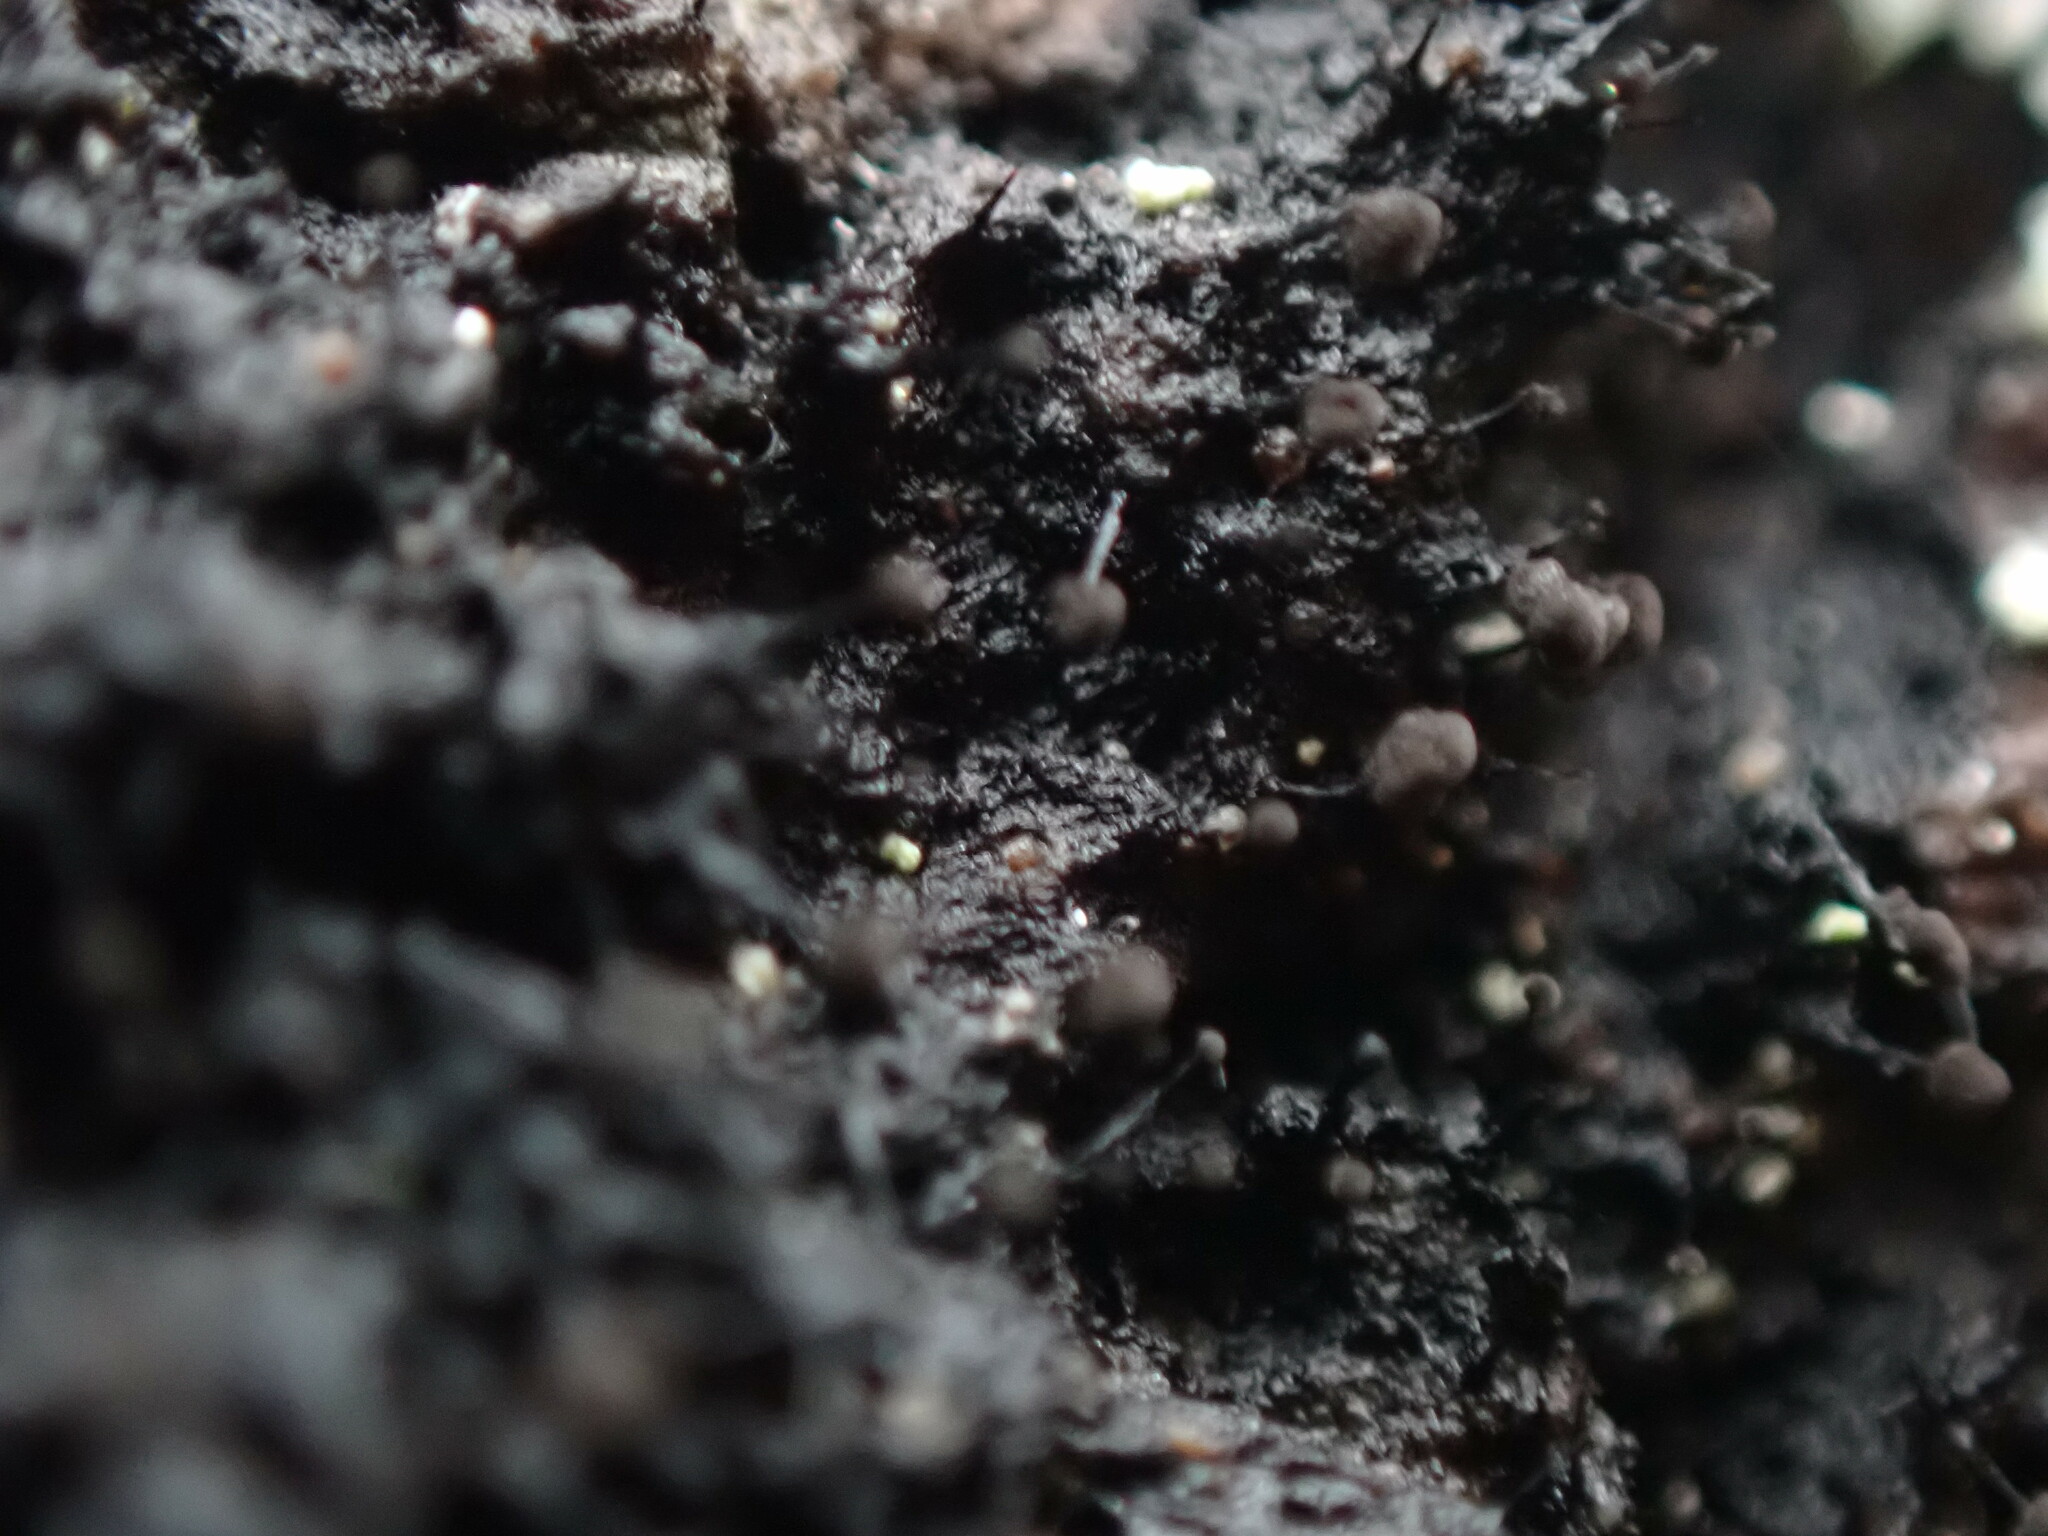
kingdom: Fungi
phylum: Ascomycota
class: Leotiomycetes
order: Helotiales
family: Amorphothecaceae
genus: Sorocybe
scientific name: Sorocybe resinae
